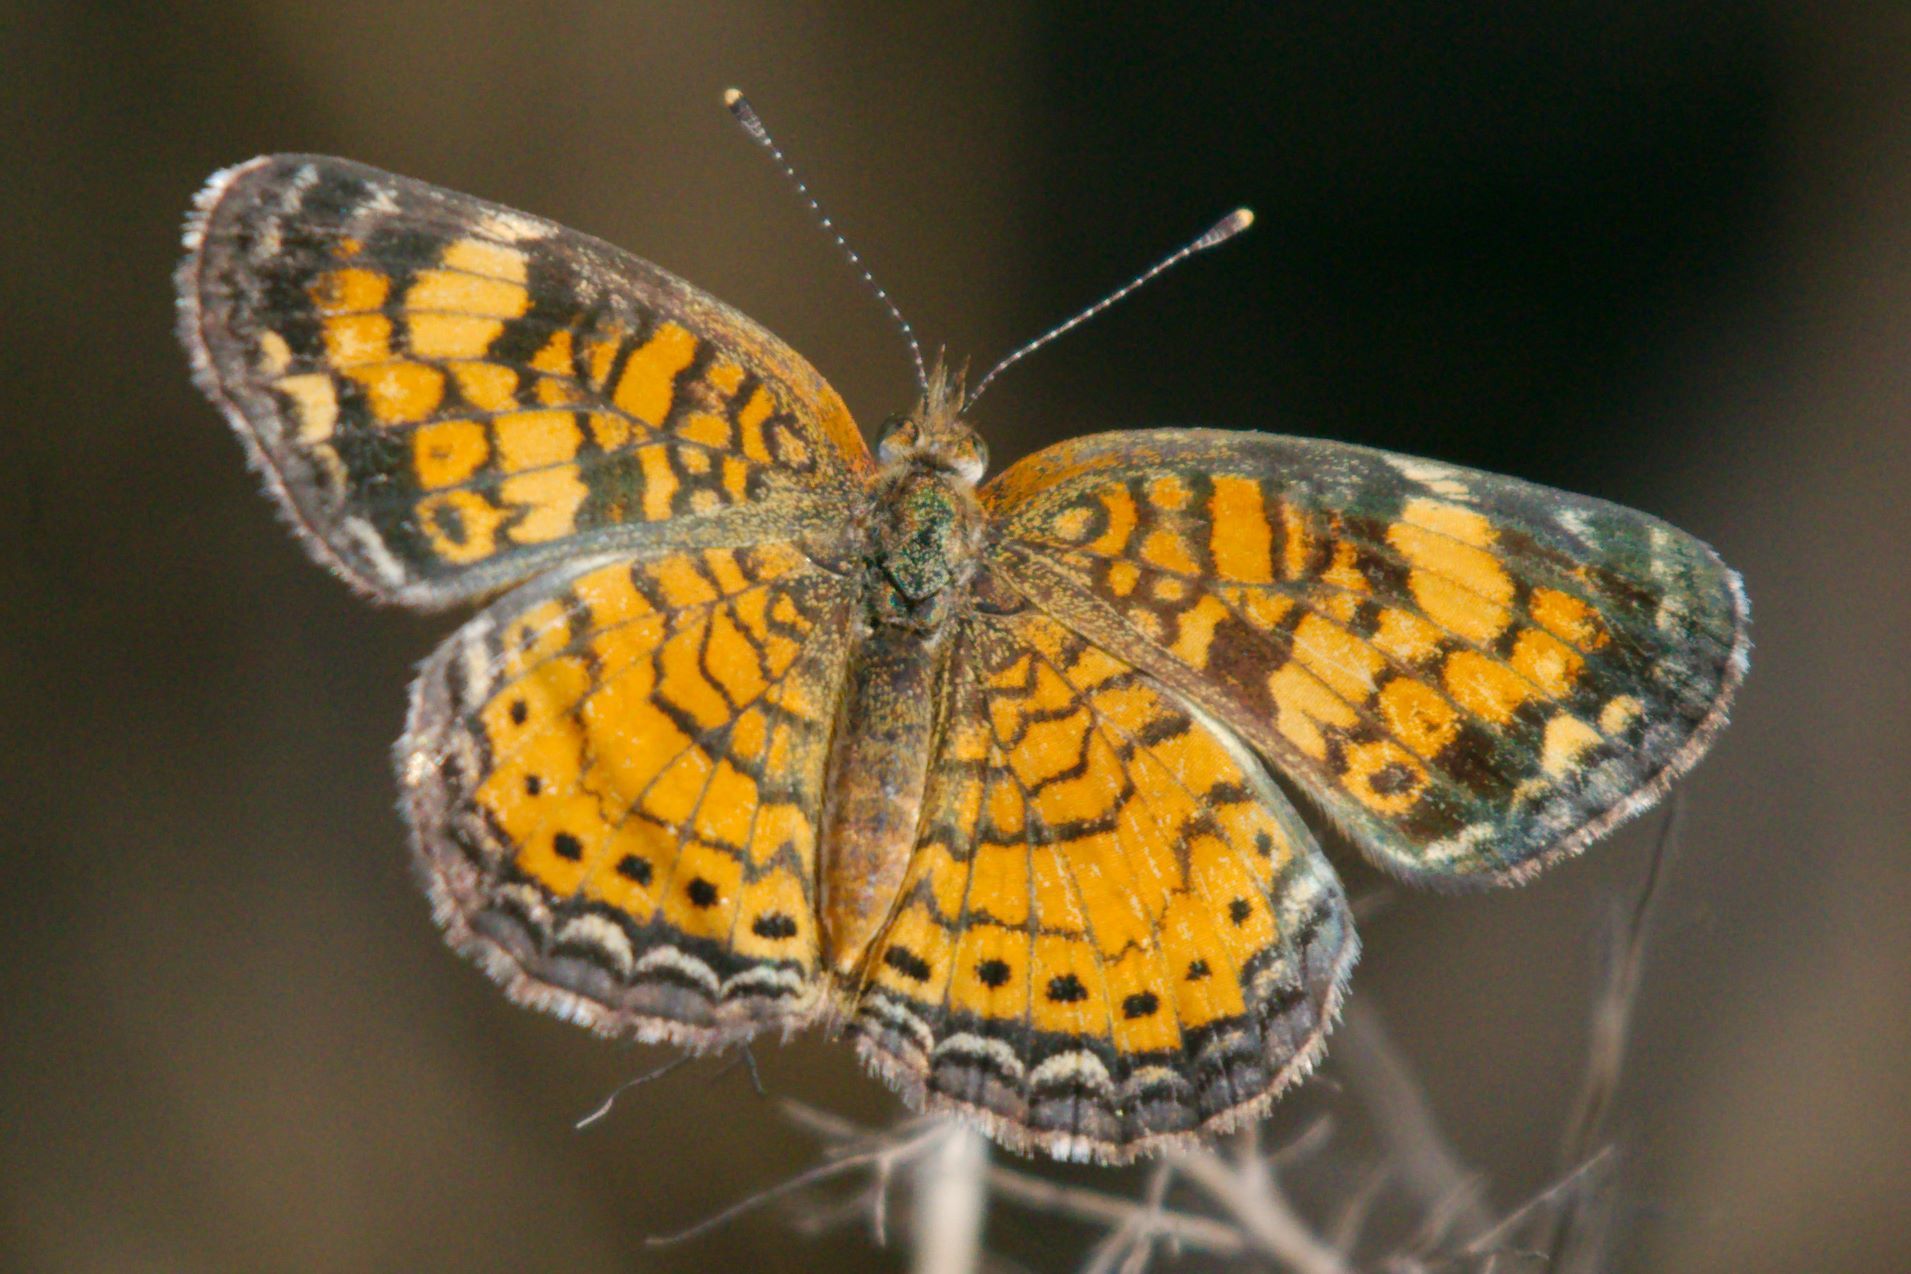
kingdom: Animalia
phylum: Arthropoda
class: Insecta
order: Lepidoptera
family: Nymphalidae
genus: Phyciodes
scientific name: Phyciodes tharos
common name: Pearl crescent
